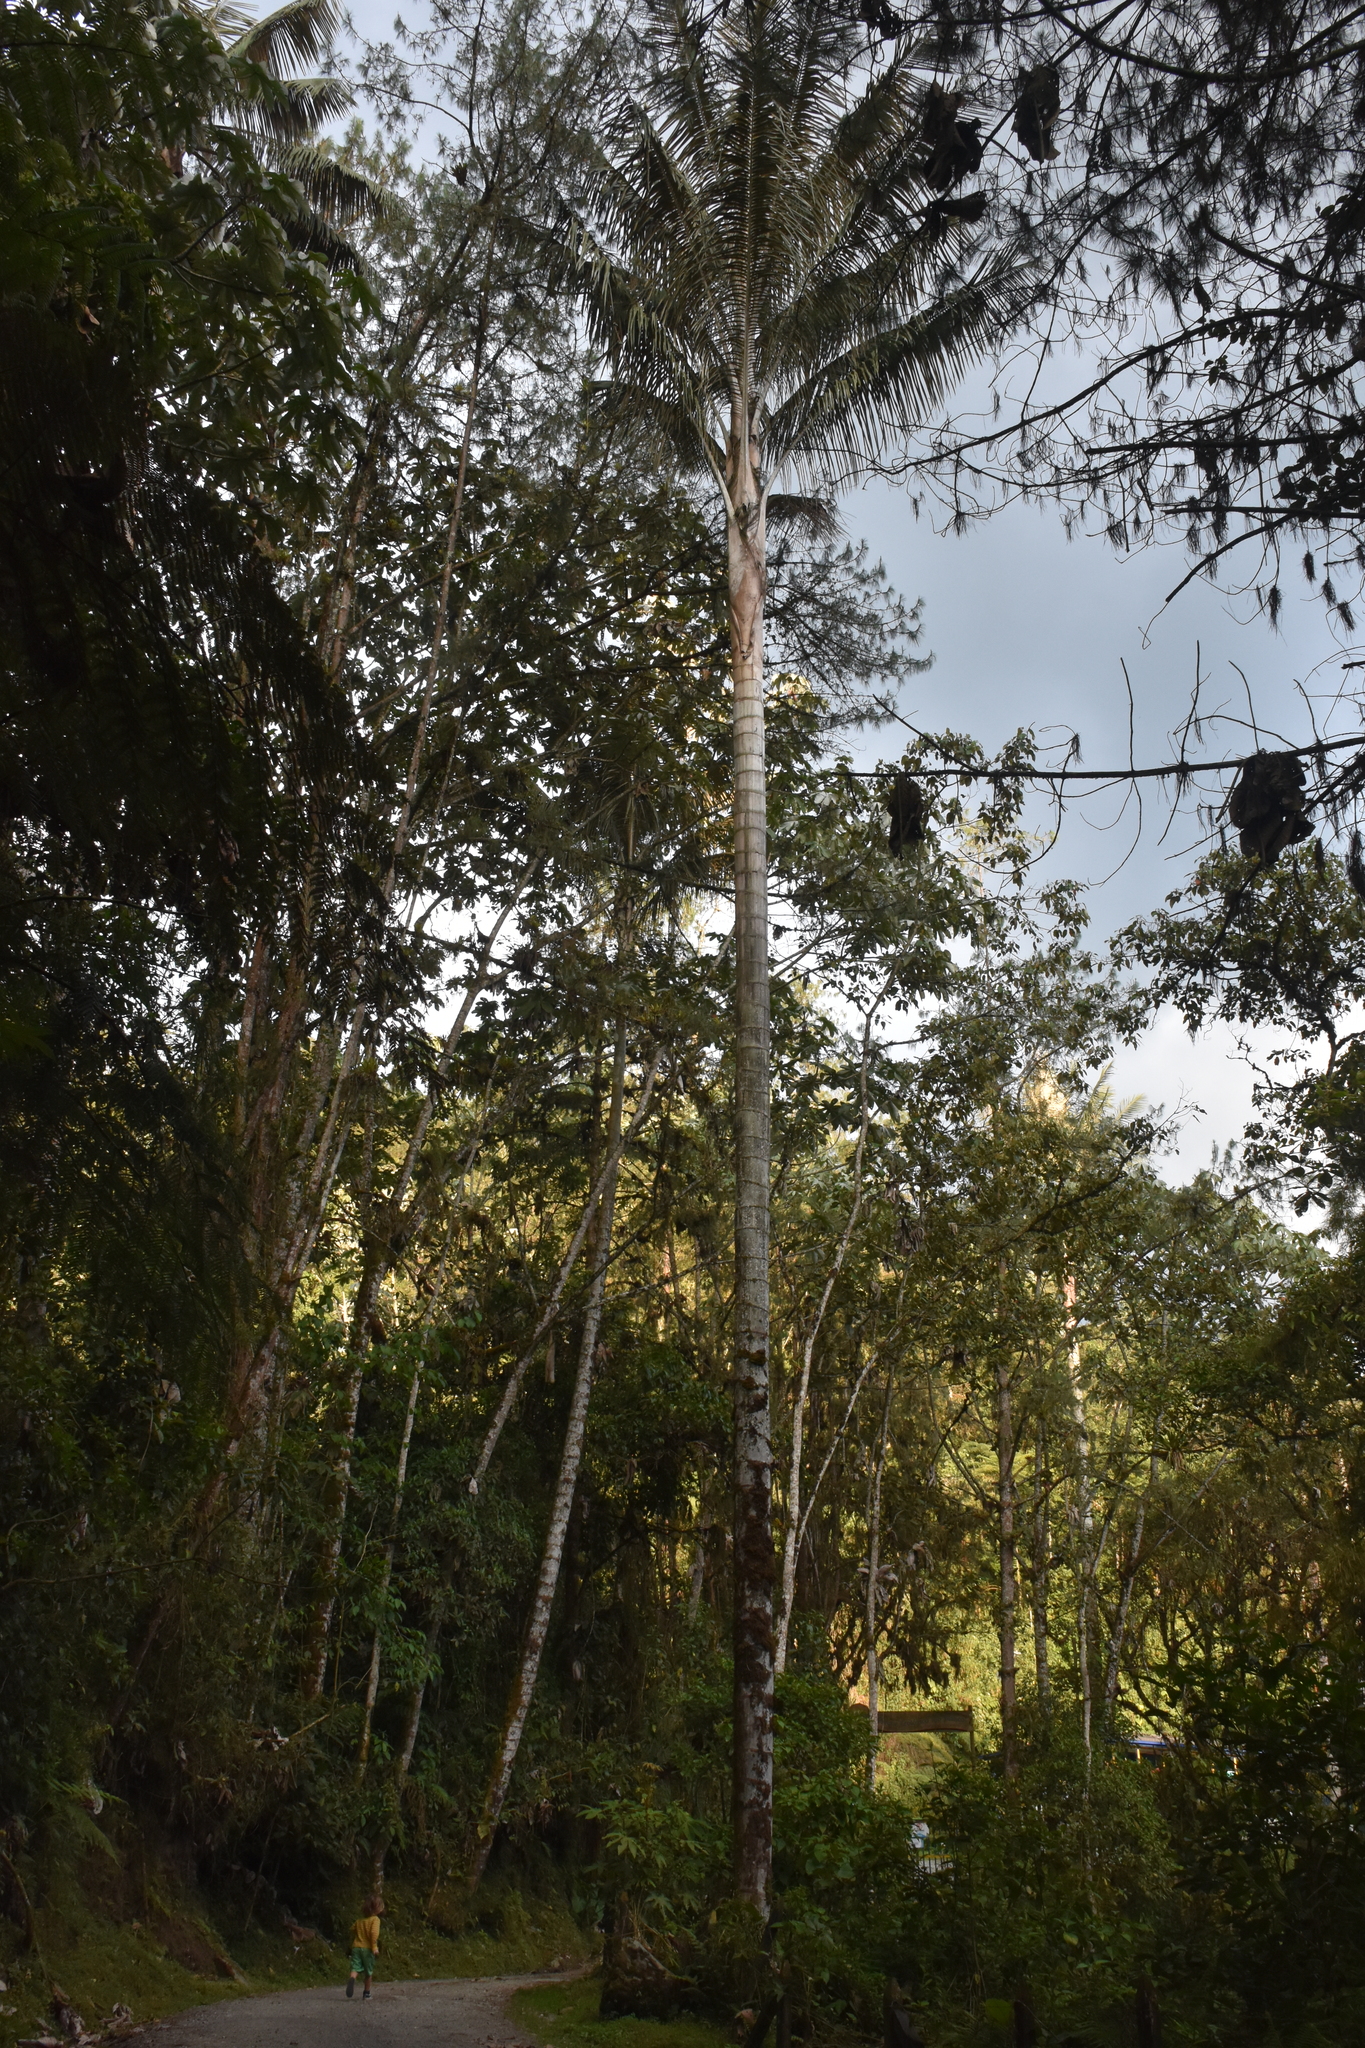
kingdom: Plantae
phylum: Tracheophyta
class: Liliopsida
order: Arecales
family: Arecaceae
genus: Ceroxylon
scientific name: Ceroxylon quindiuense
